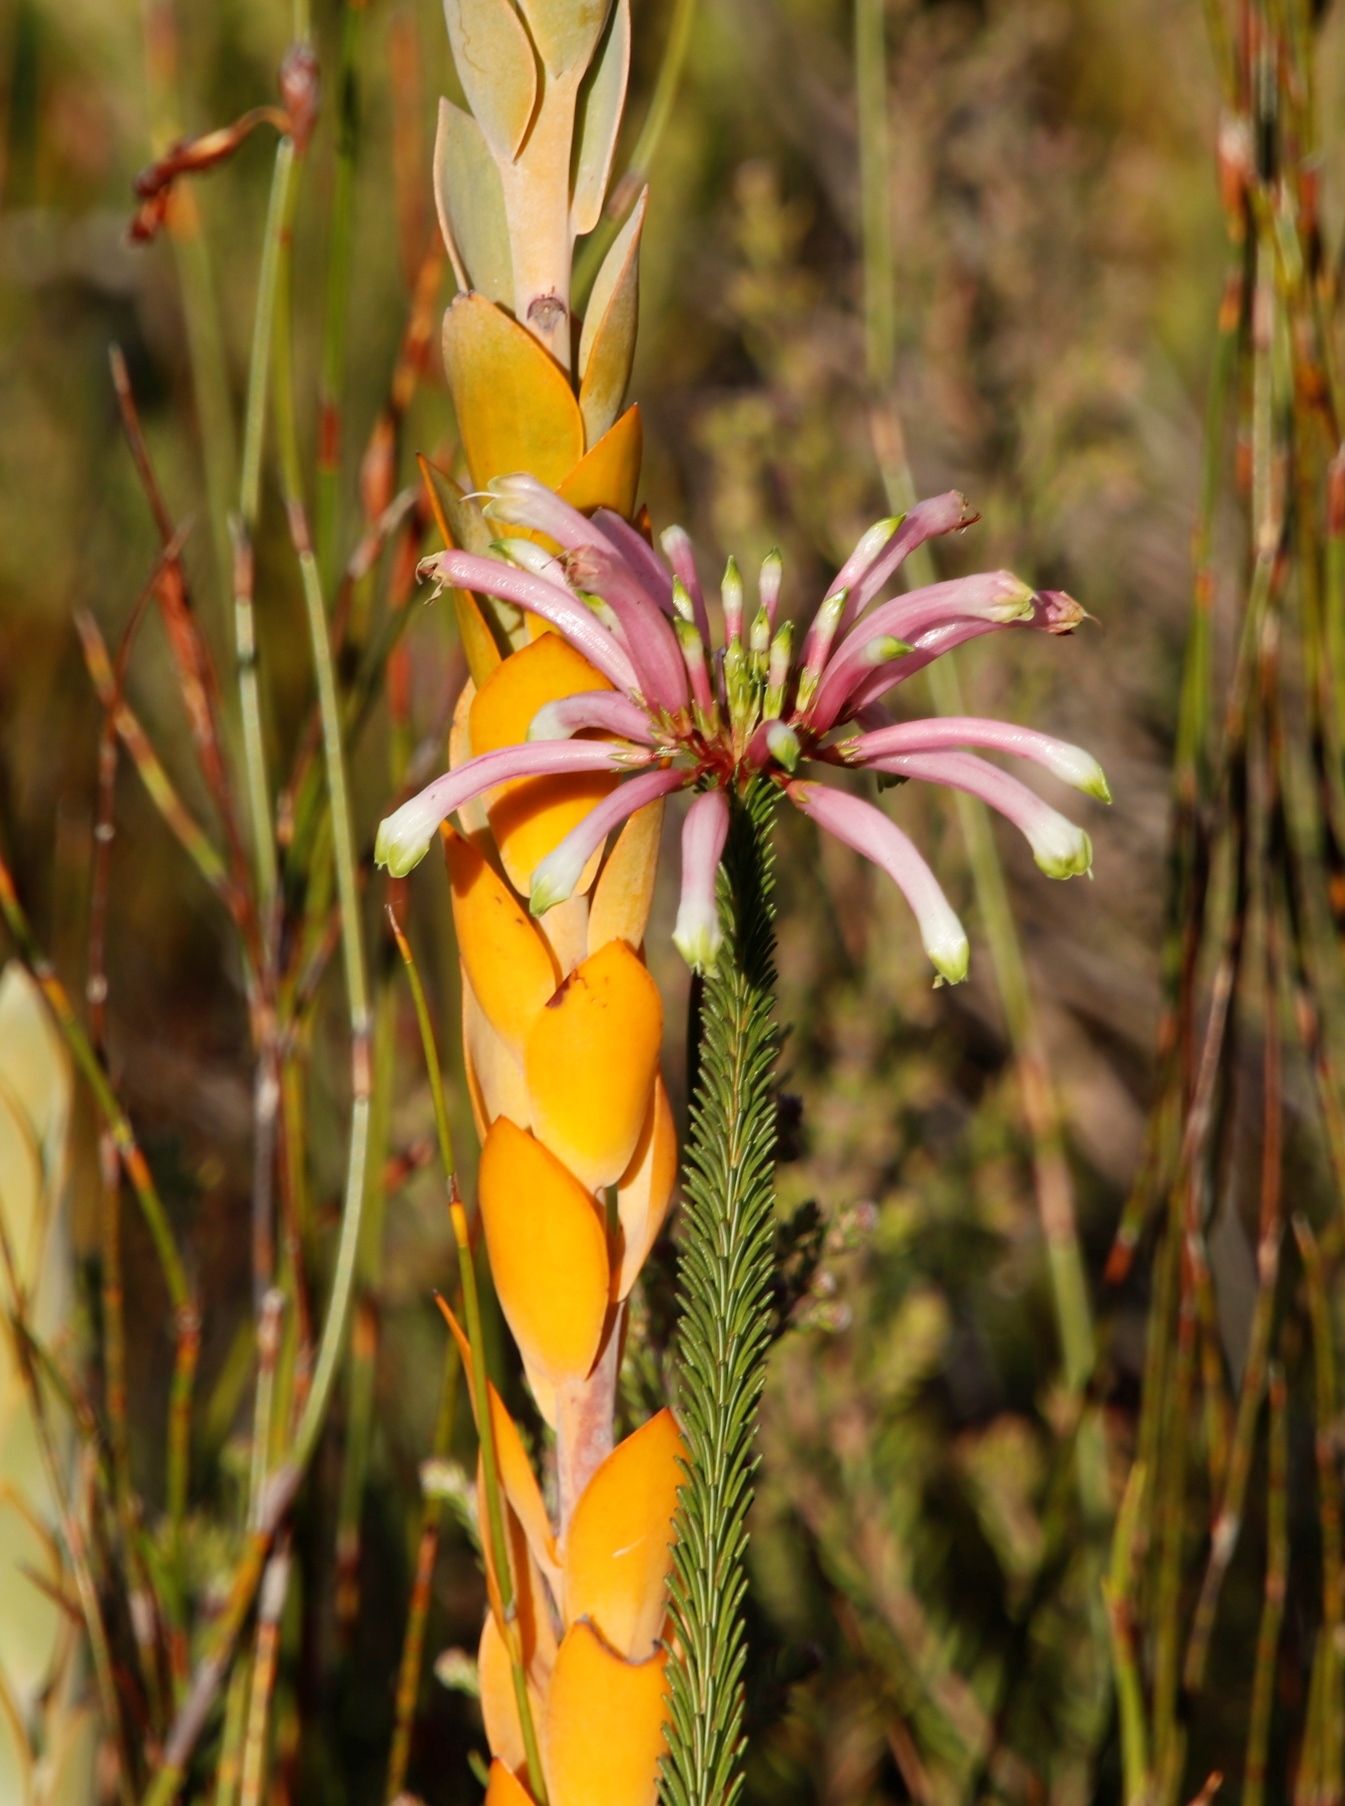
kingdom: Plantae
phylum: Tracheophyta
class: Magnoliopsida
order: Ericales
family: Ericaceae
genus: Erica
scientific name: Erica fascicularis
